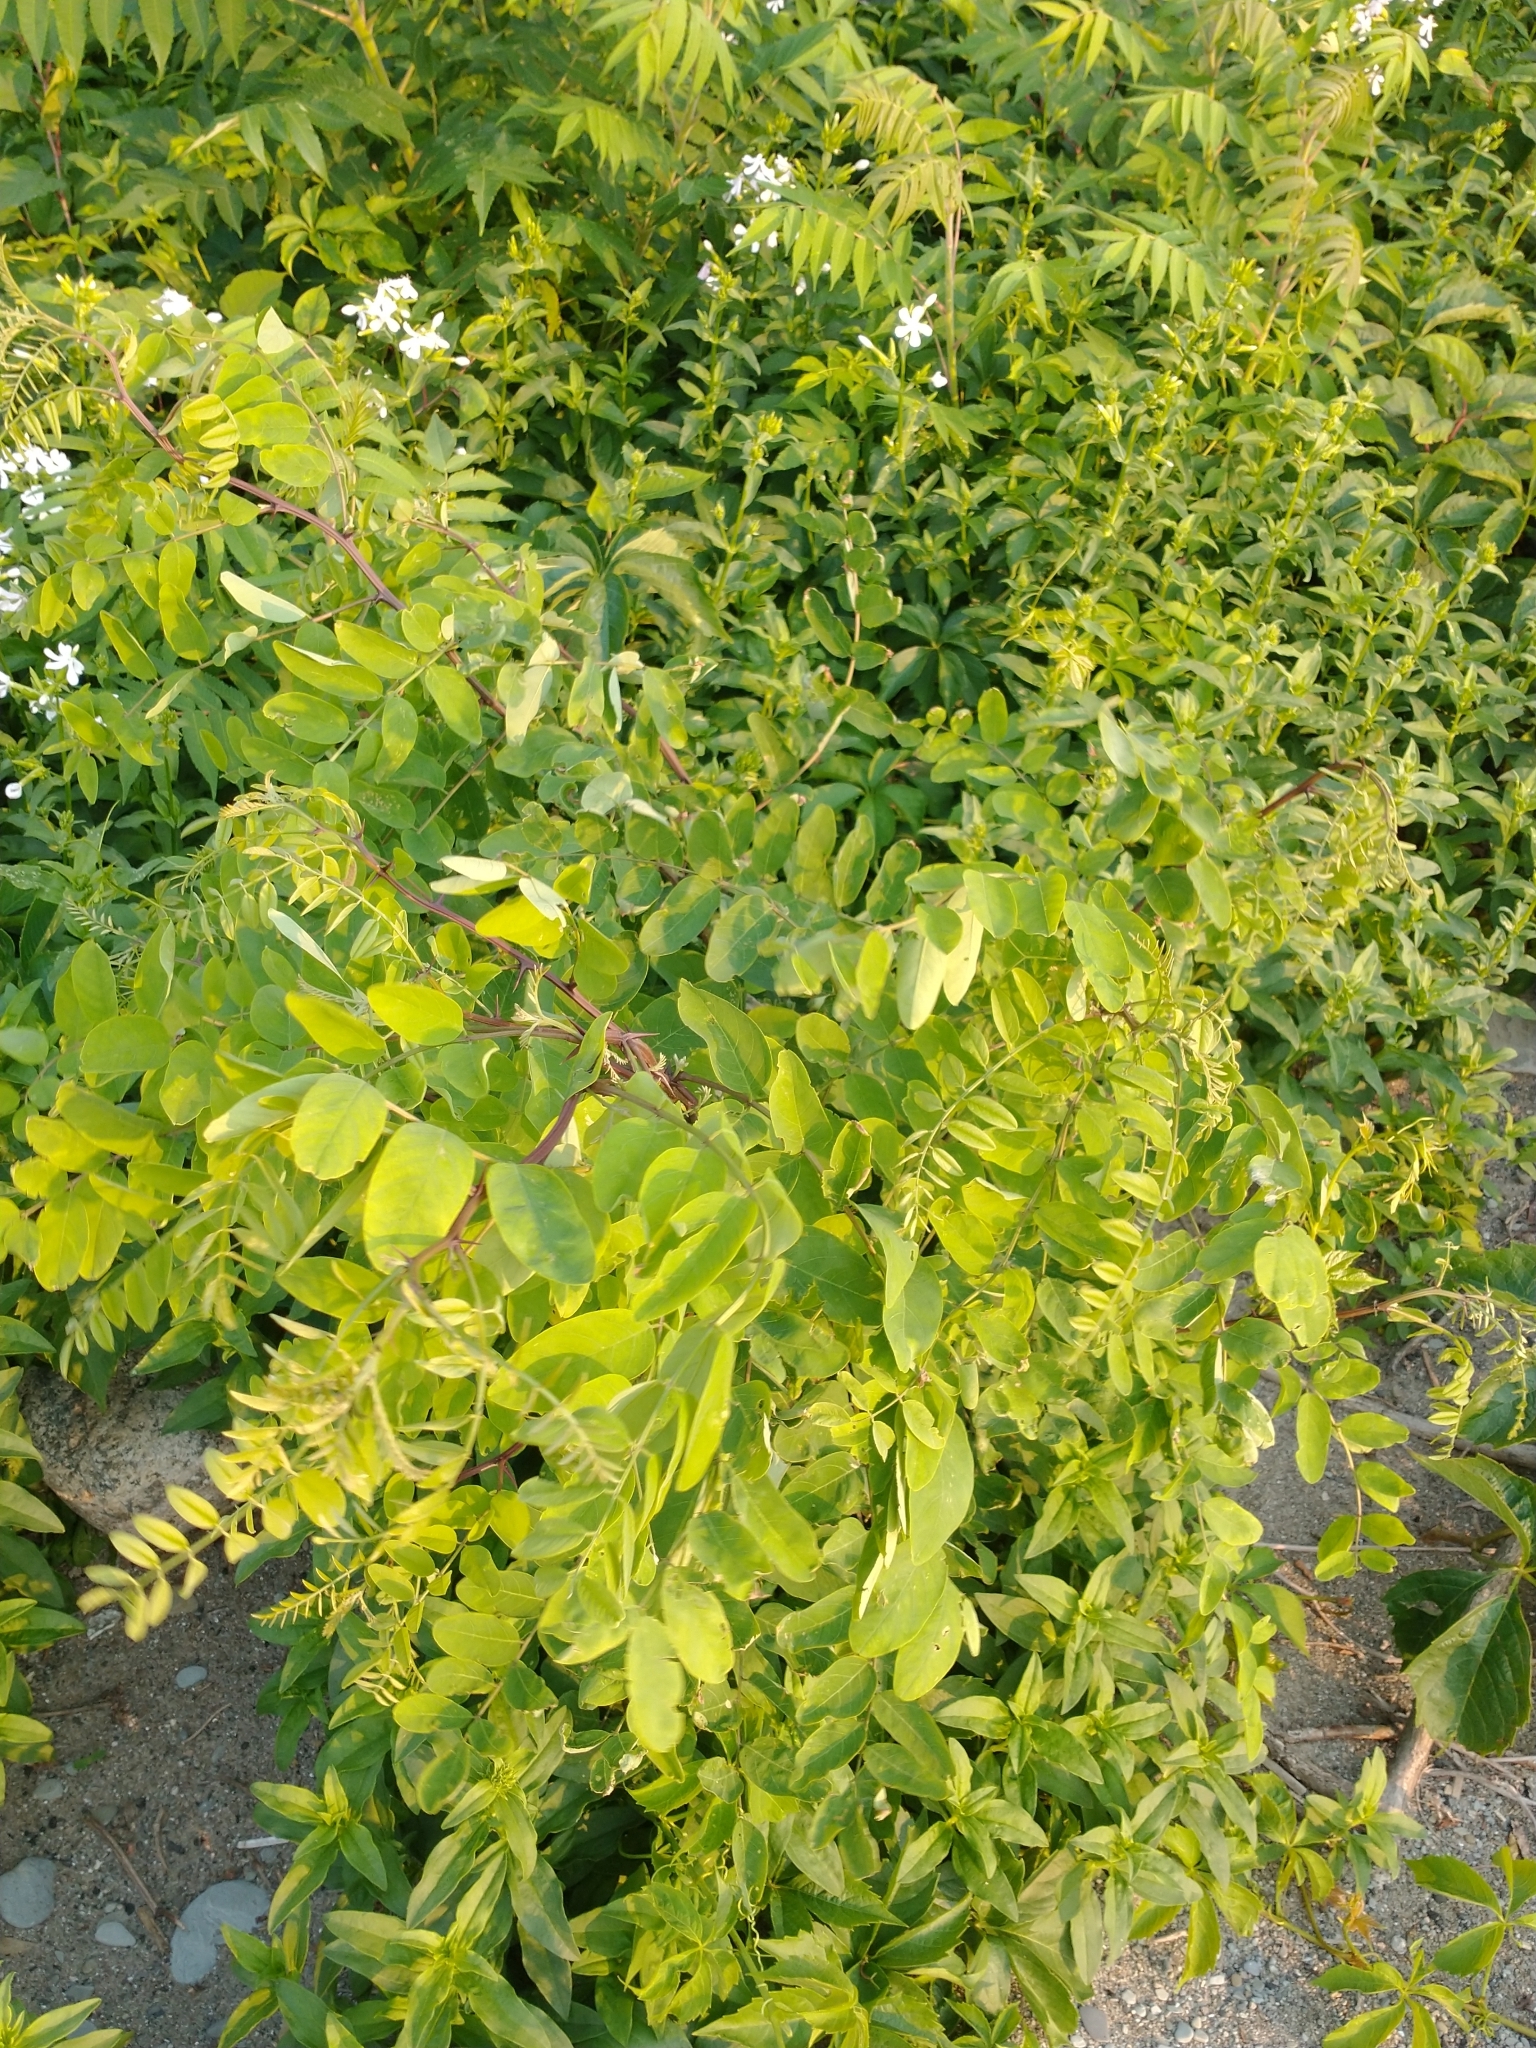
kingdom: Plantae
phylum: Tracheophyta
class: Magnoliopsida
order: Fabales
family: Fabaceae
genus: Robinia
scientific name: Robinia pseudoacacia
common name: Black locust
